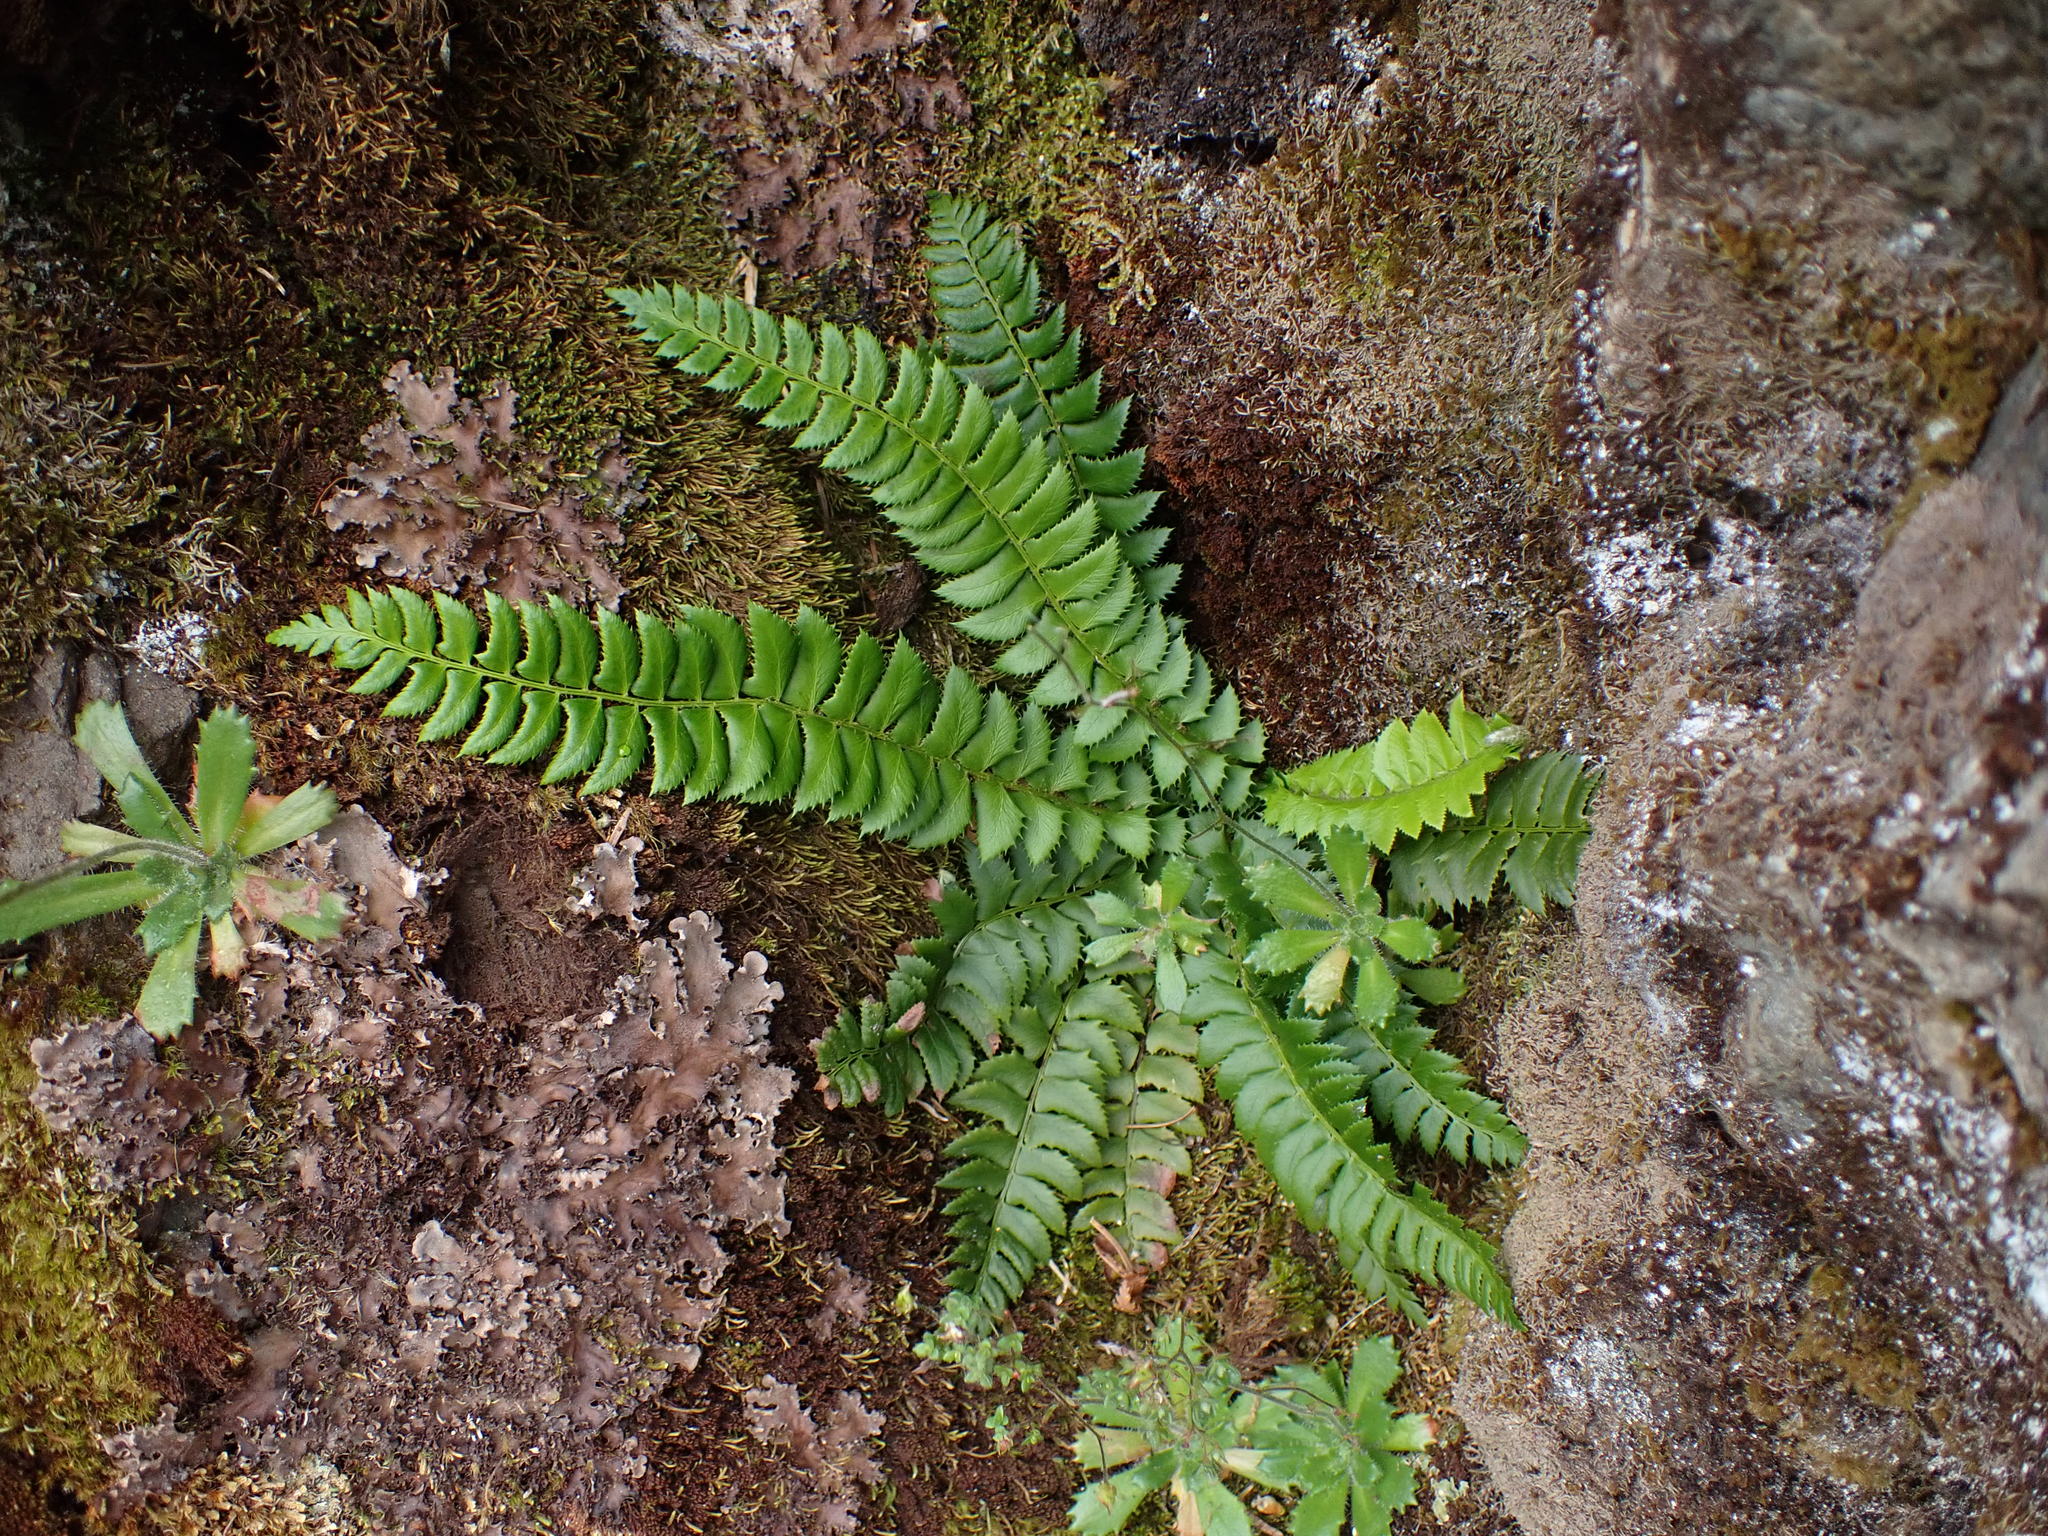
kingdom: Plantae
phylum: Tracheophyta
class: Polypodiopsida
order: Polypodiales
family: Dryopteridaceae
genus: Polystichum
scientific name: Polystichum lonchitis
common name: Holly fern
